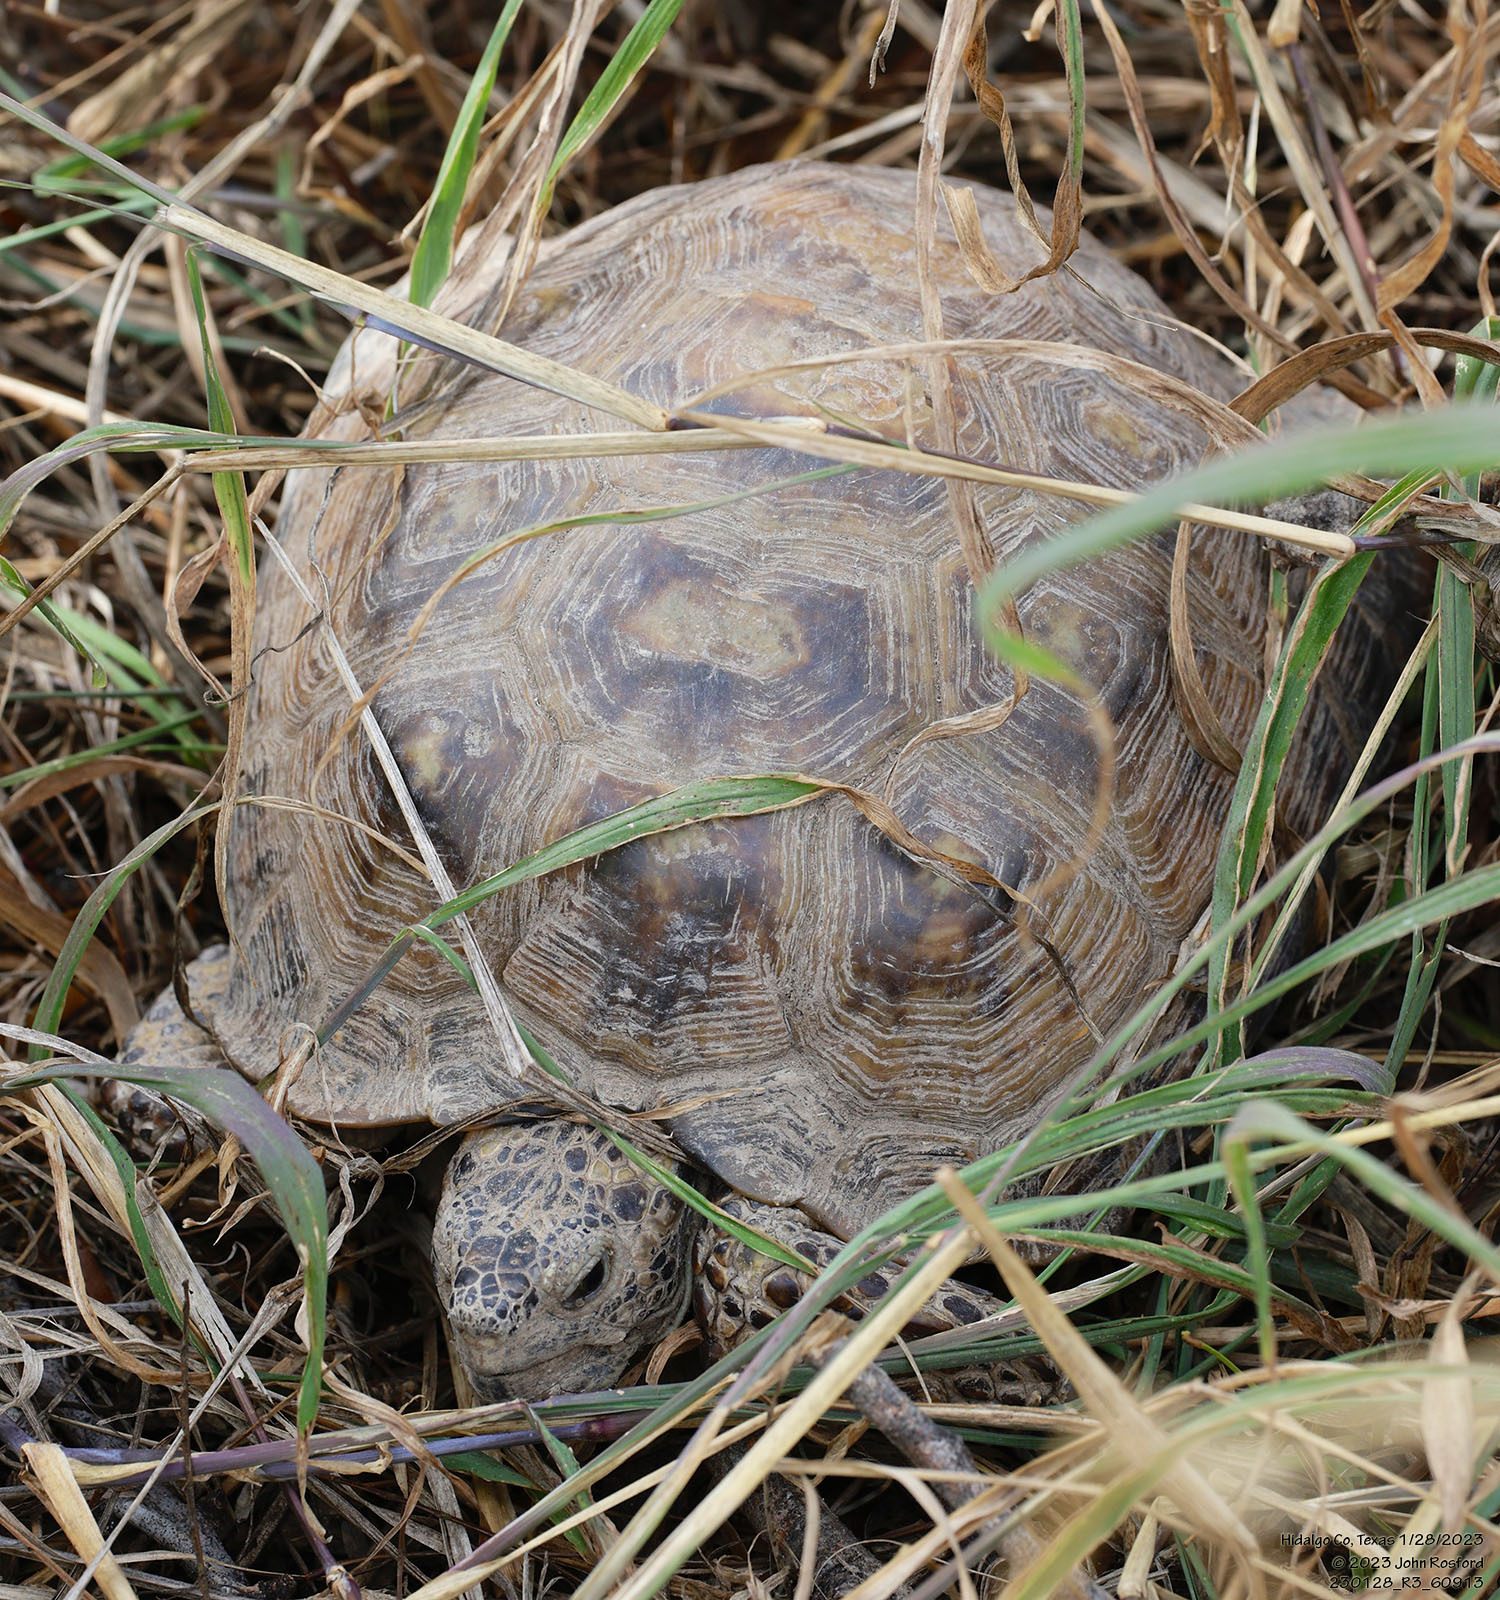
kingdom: Animalia
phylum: Chordata
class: Testudines
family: Testudinidae
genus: Gopherus
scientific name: Gopherus berlandieri
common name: Texas (gopher )tortoise
